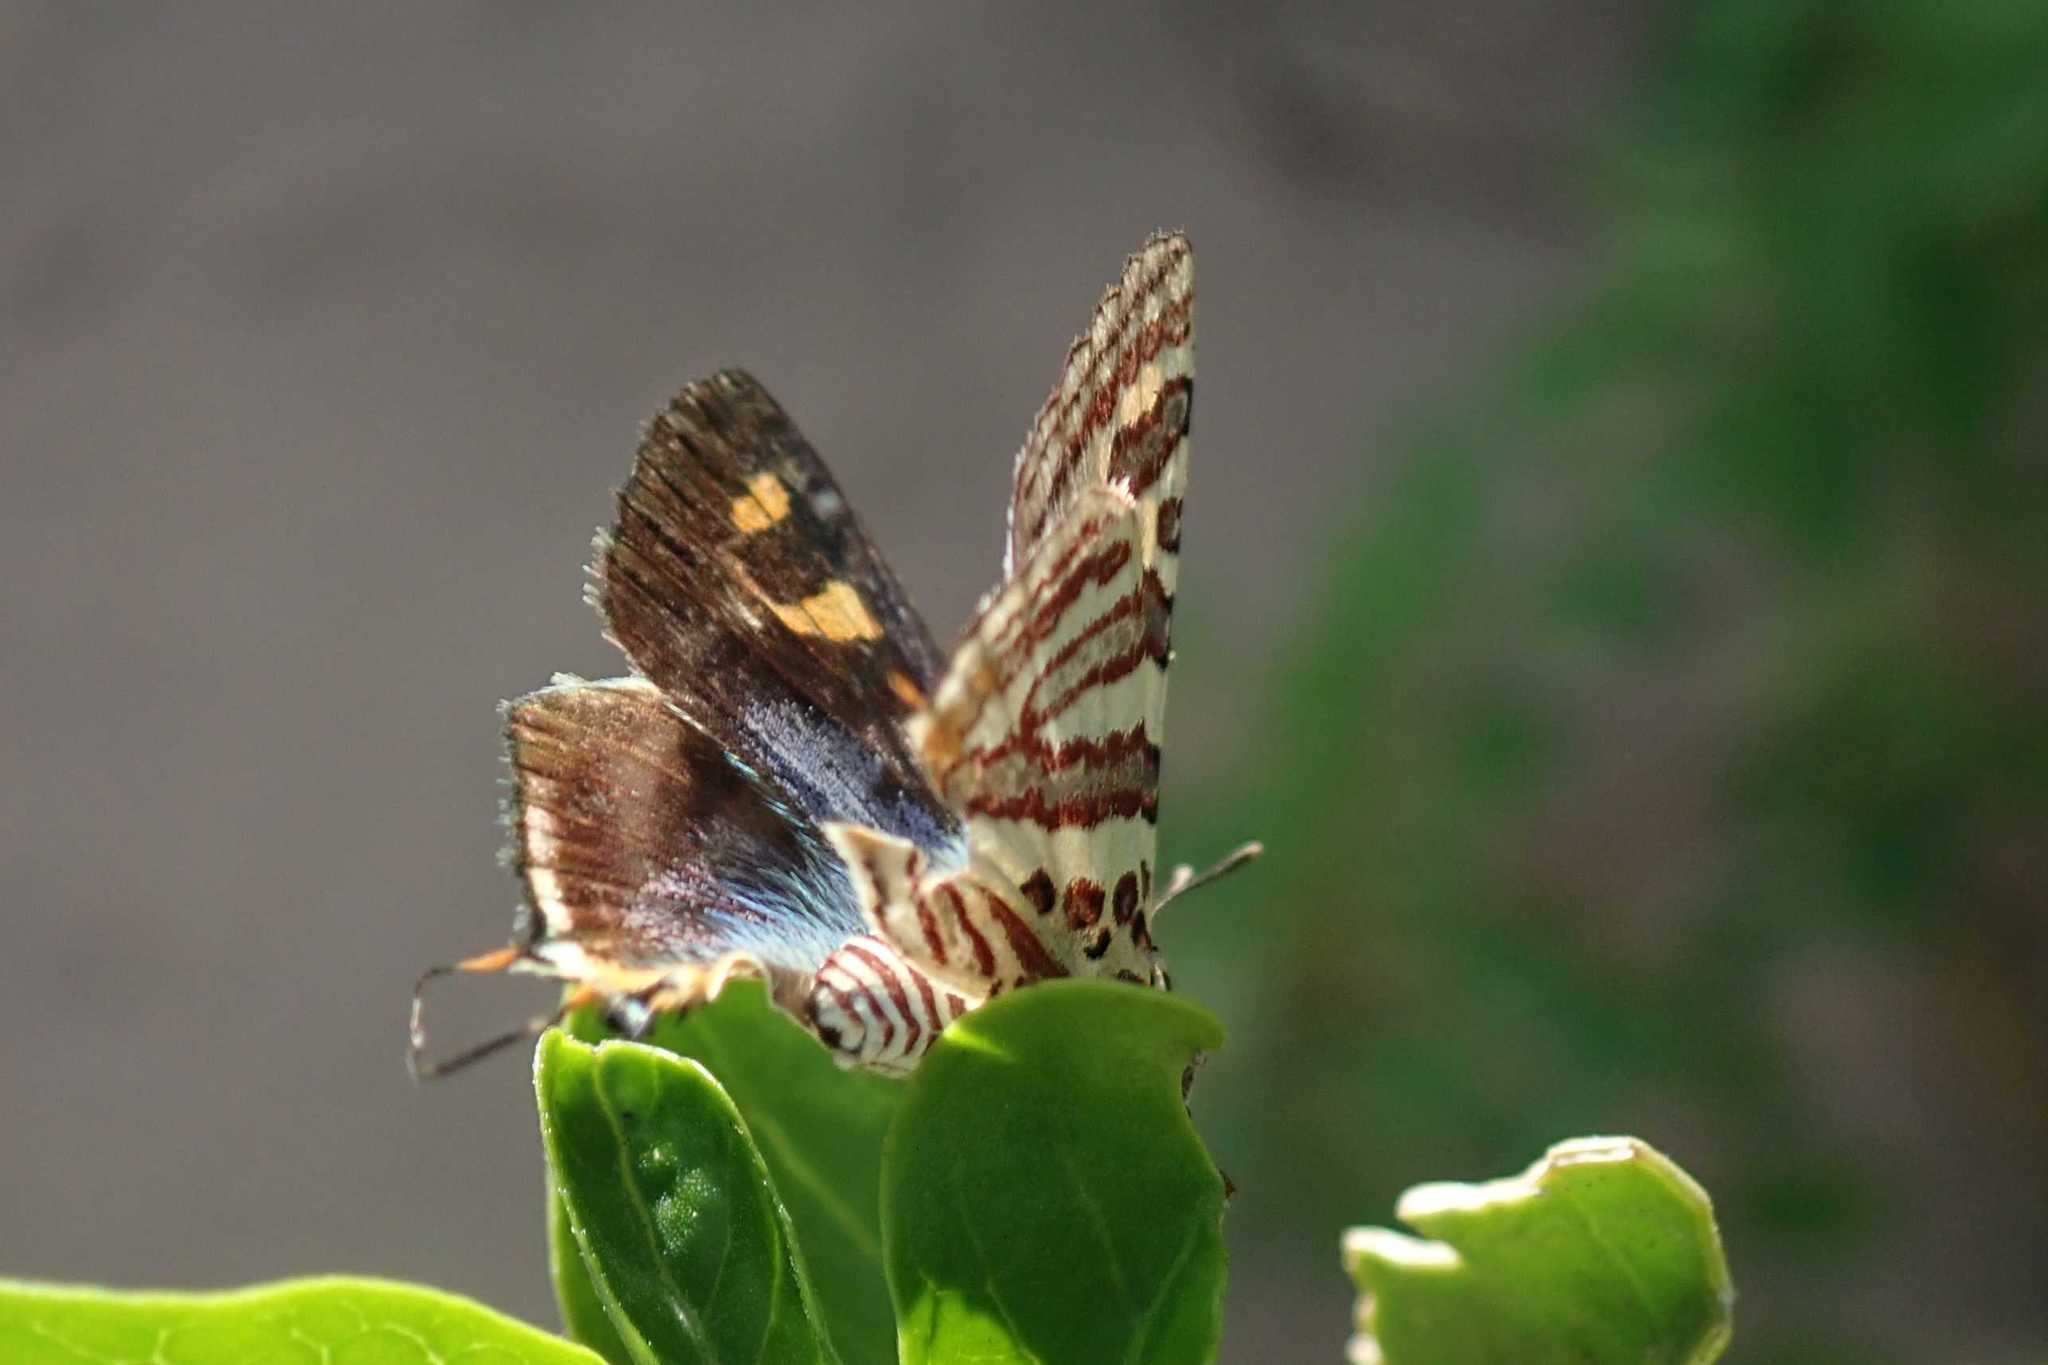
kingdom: Animalia
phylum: Arthropoda
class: Insecta
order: Lepidoptera
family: Lycaenidae
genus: Spindasis
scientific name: Spindasis ella
